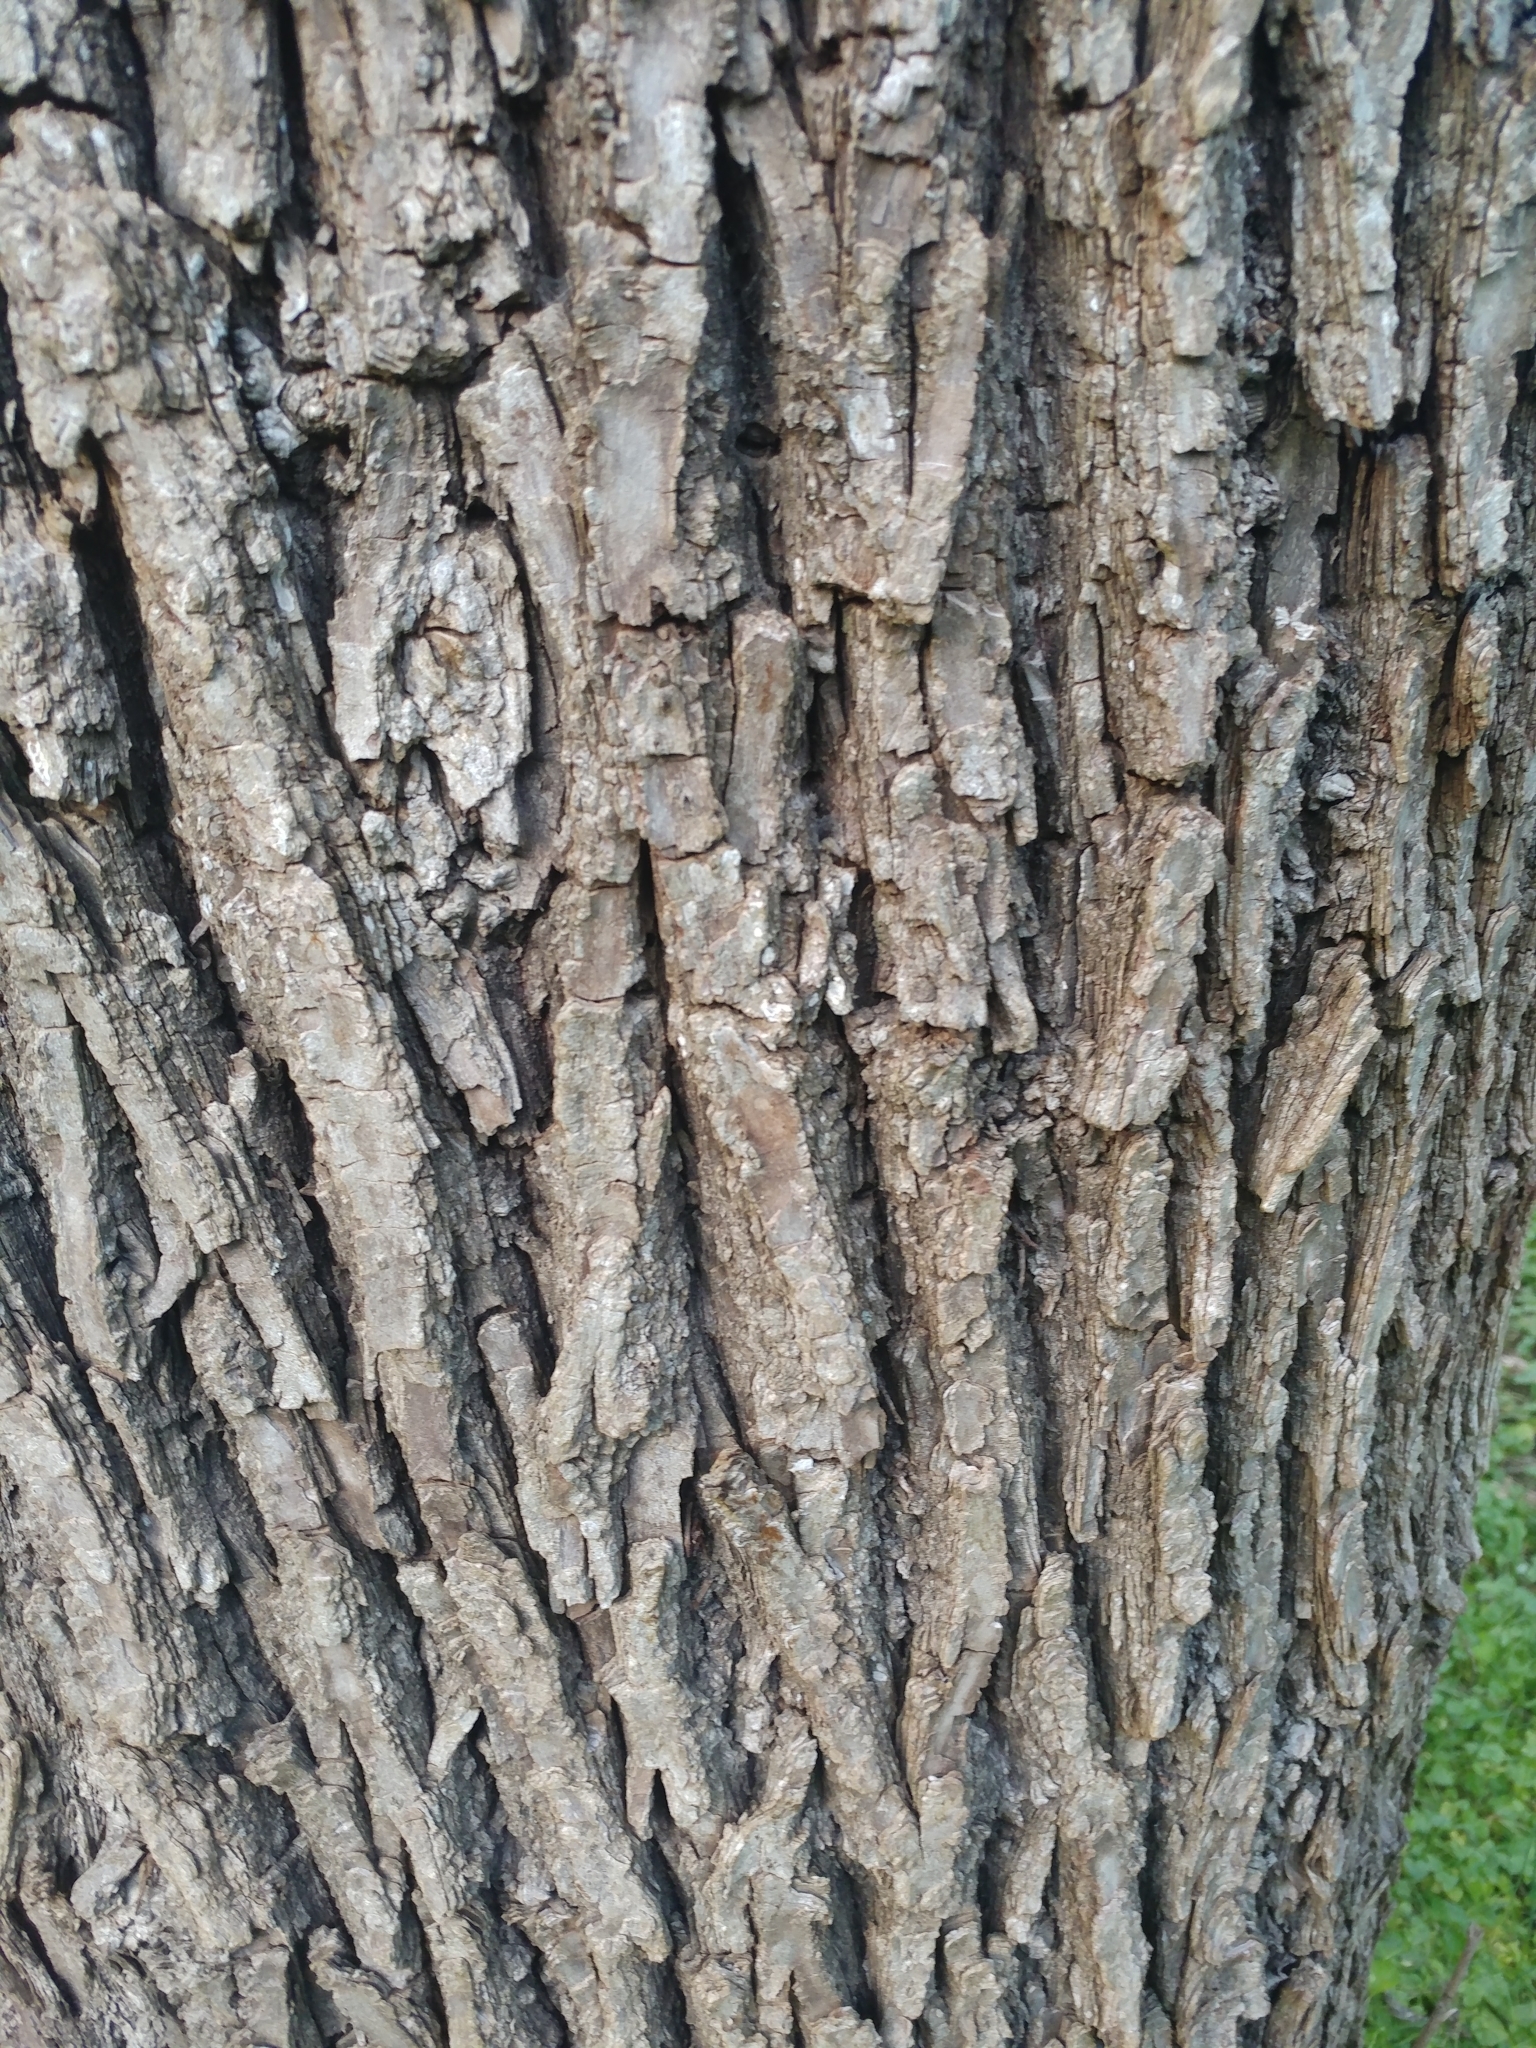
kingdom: Plantae
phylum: Tracheophyta
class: Magnoliopsida
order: Malpighiales
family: Salicaceae
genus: Salix
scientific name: Salix nigra
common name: Black willow
